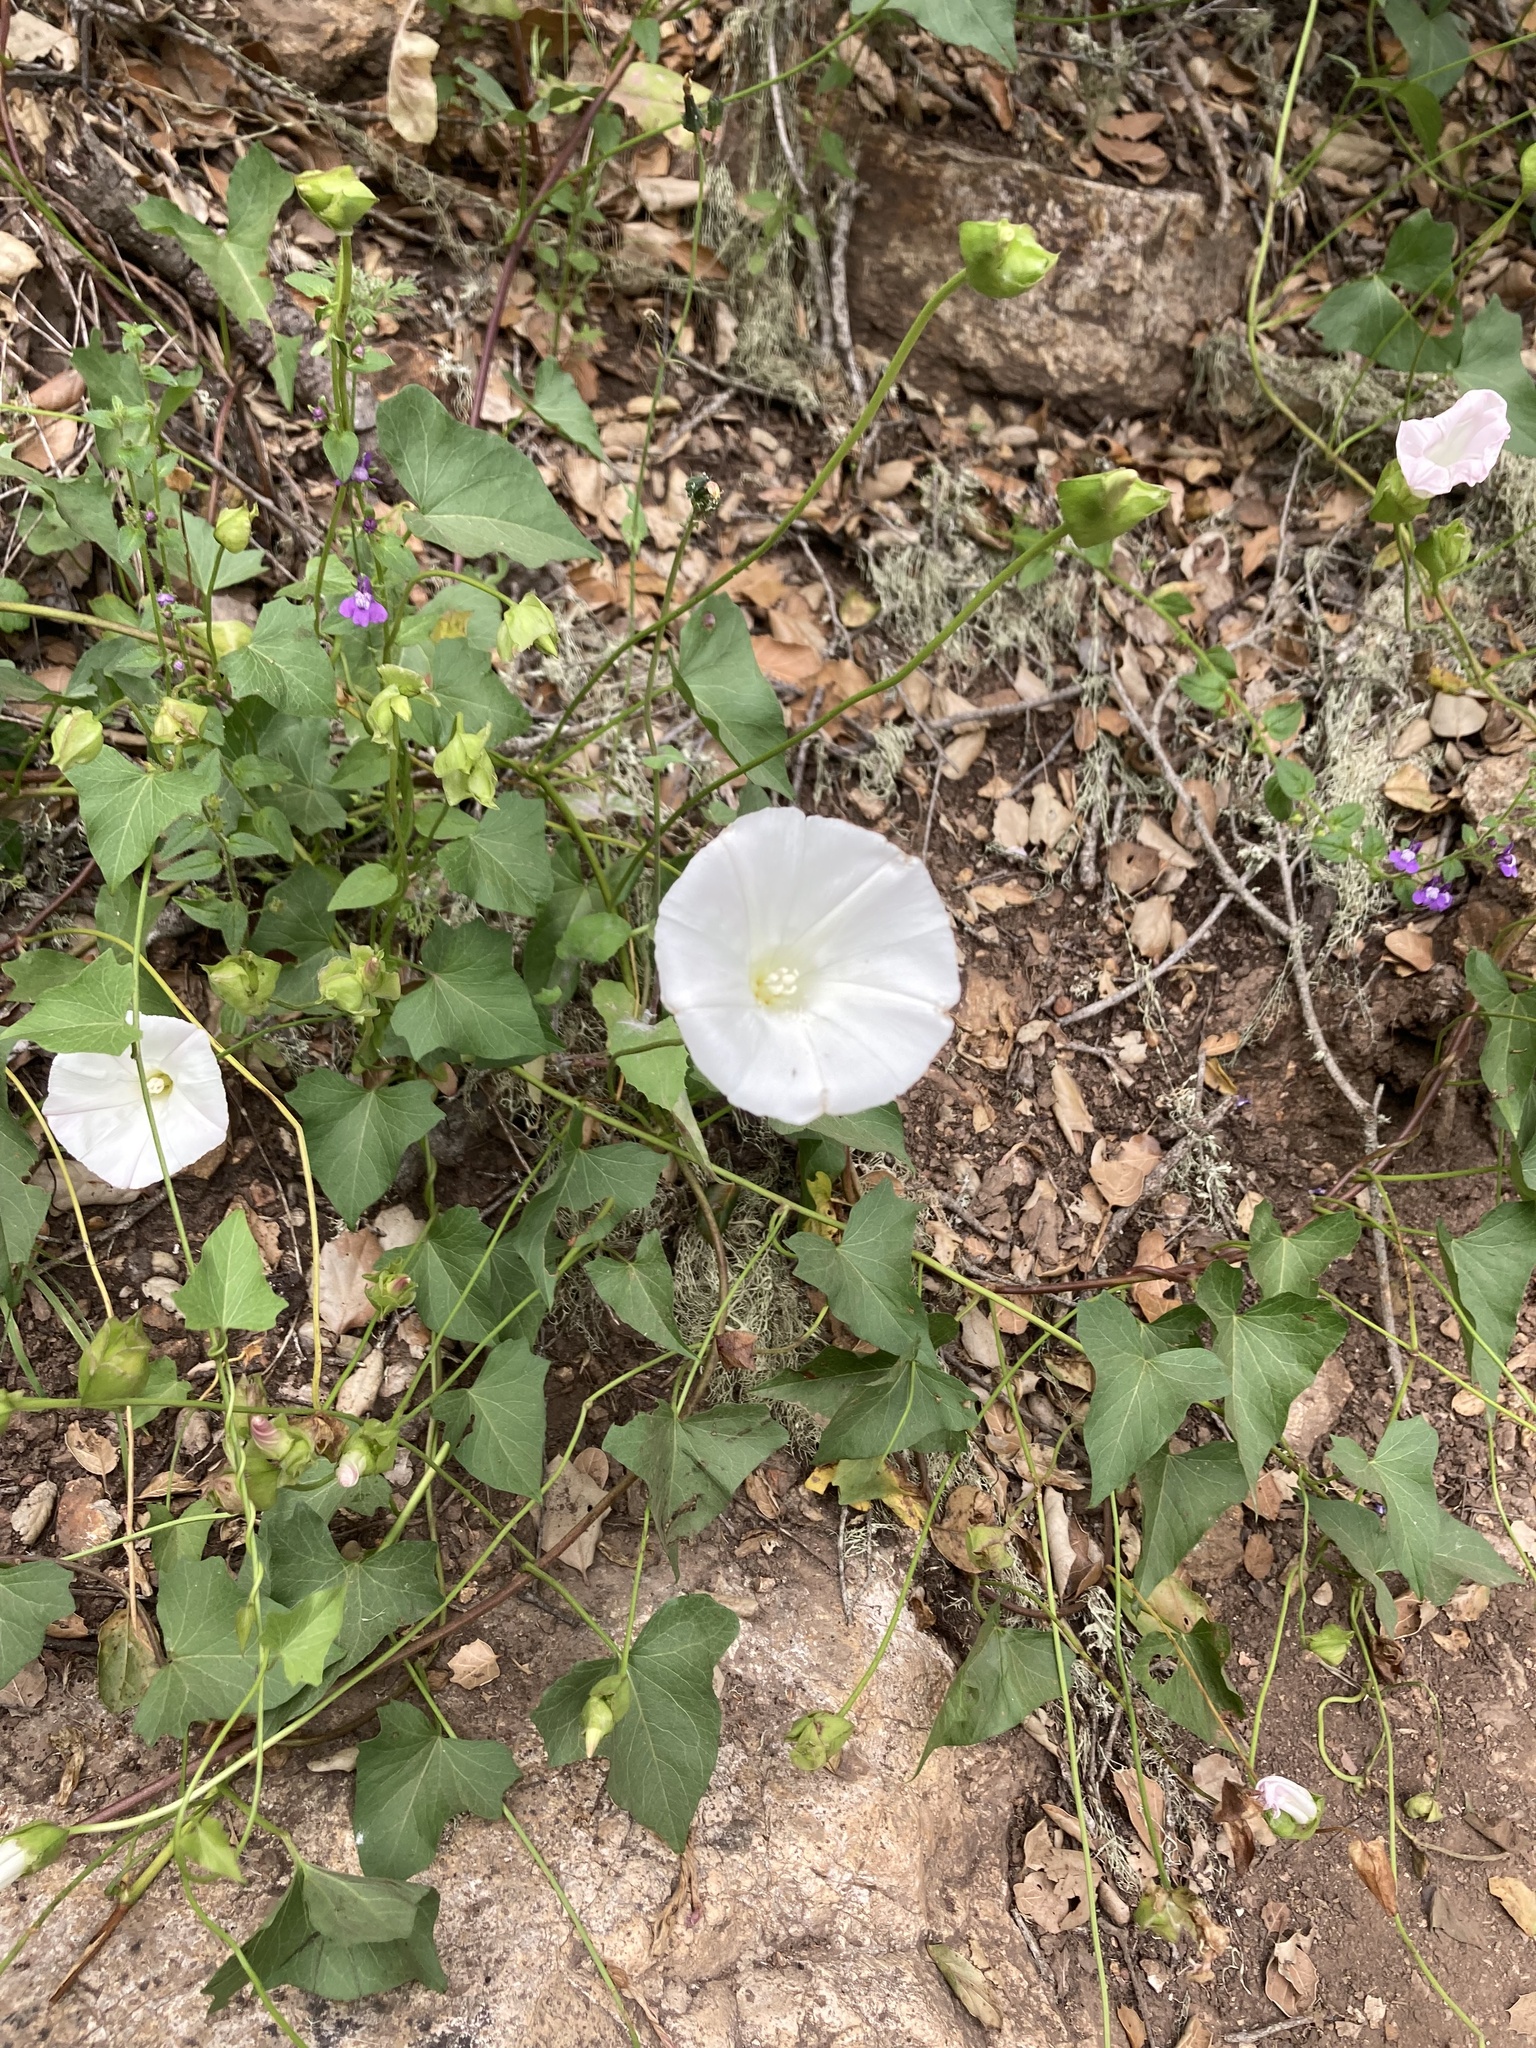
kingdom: Plantae
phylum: Tracheophyta
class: Magnoliopsida
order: Solanales
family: Convolvulaceae
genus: Calystegia
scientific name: Calystegia macrostegia
